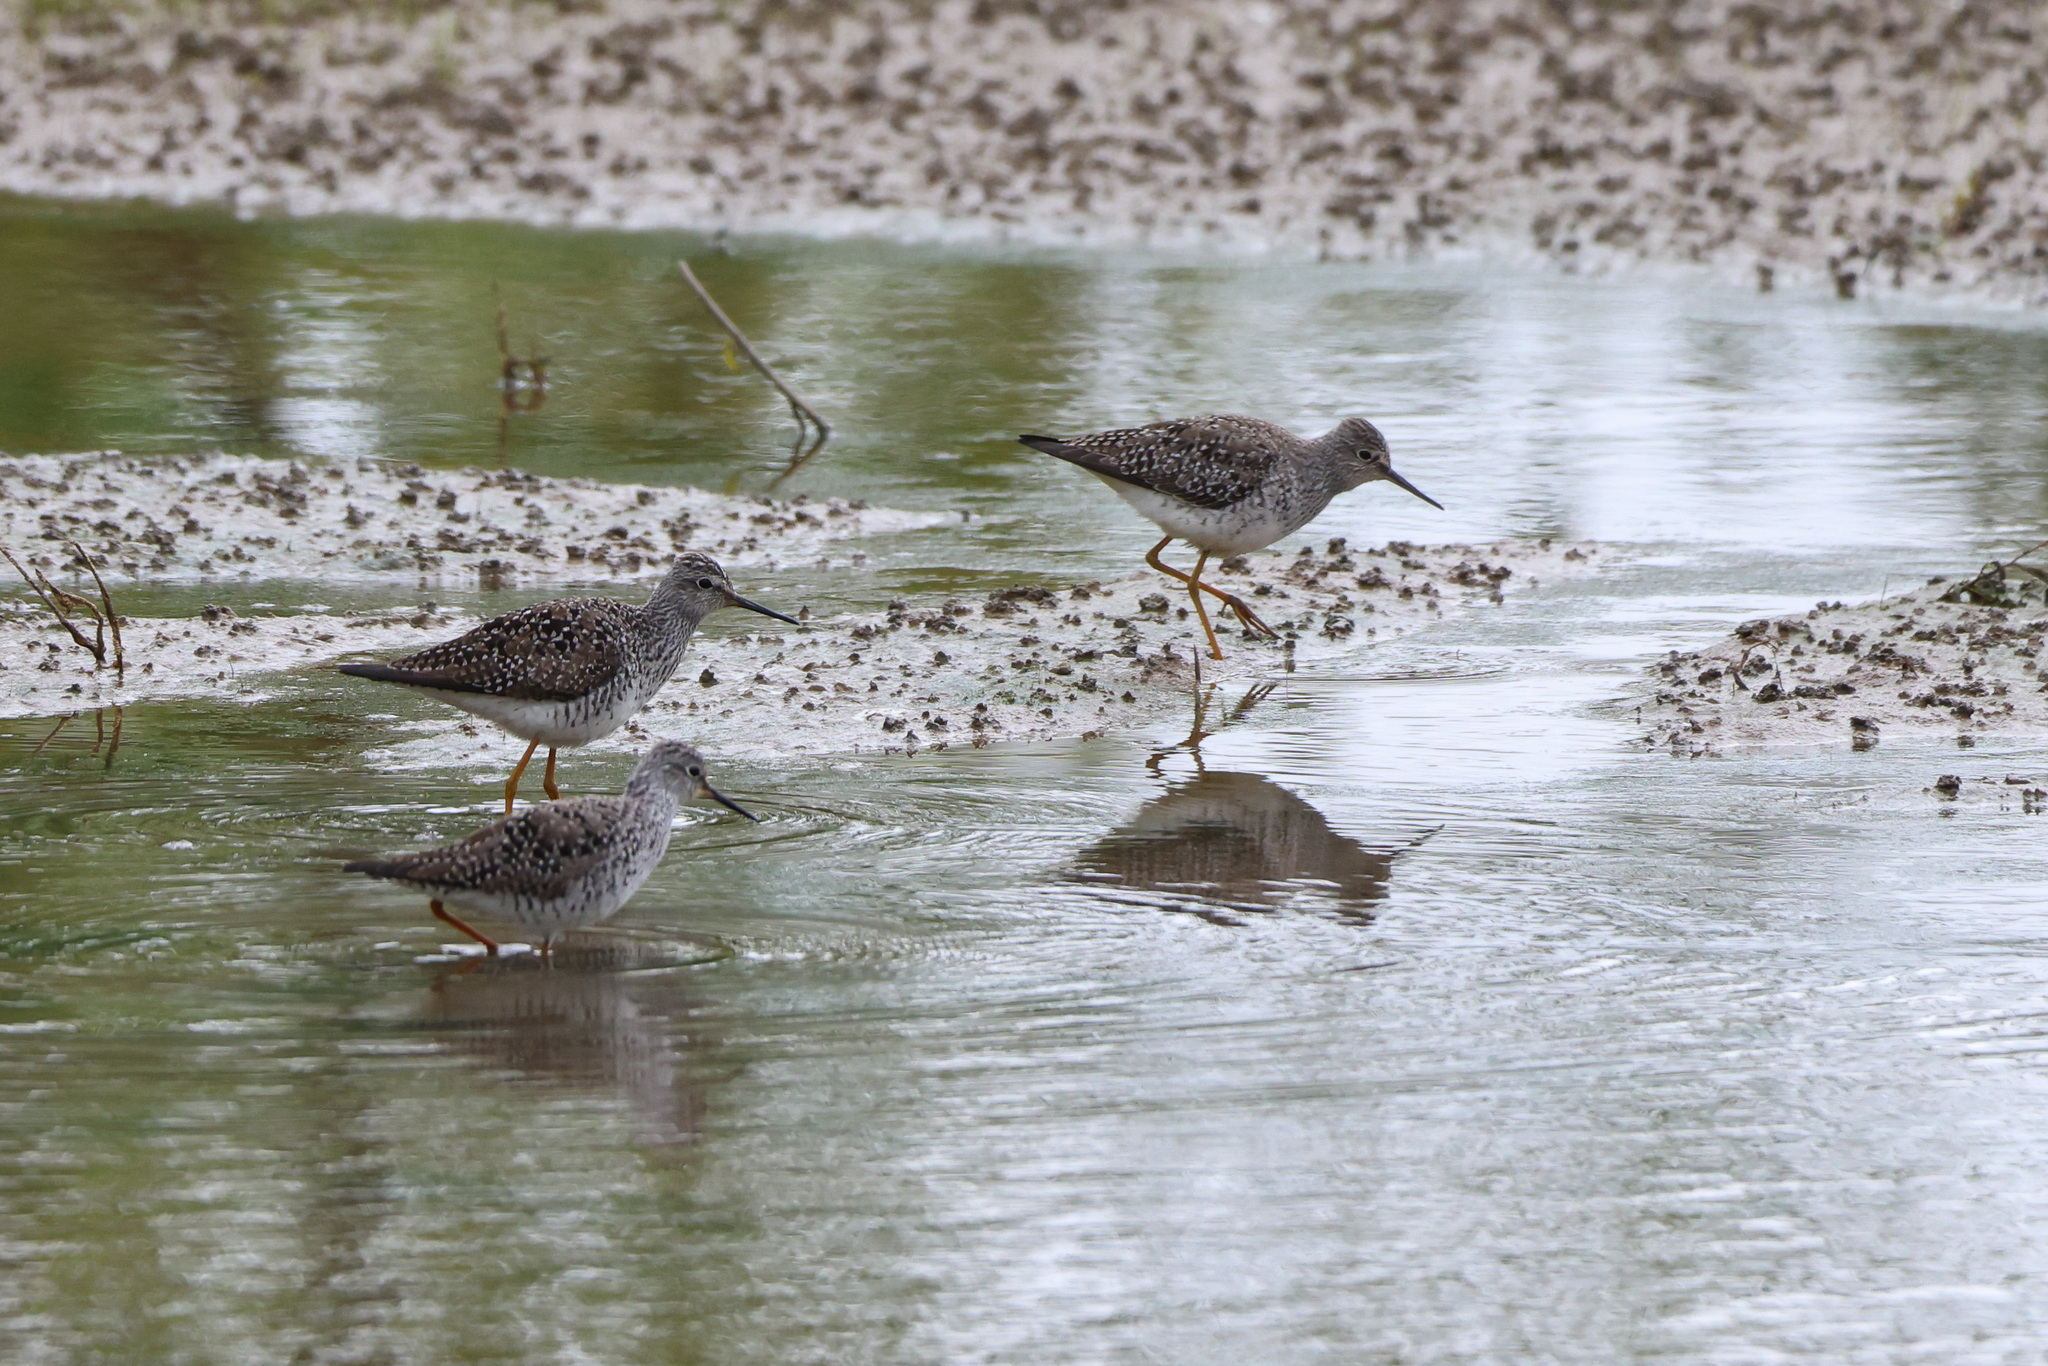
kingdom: Animalia
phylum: Chordata
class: Aves
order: Charadriiformes
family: Scolopacidae
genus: Tringa
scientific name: Tringa flavipes
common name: Lesser yellowlegs
